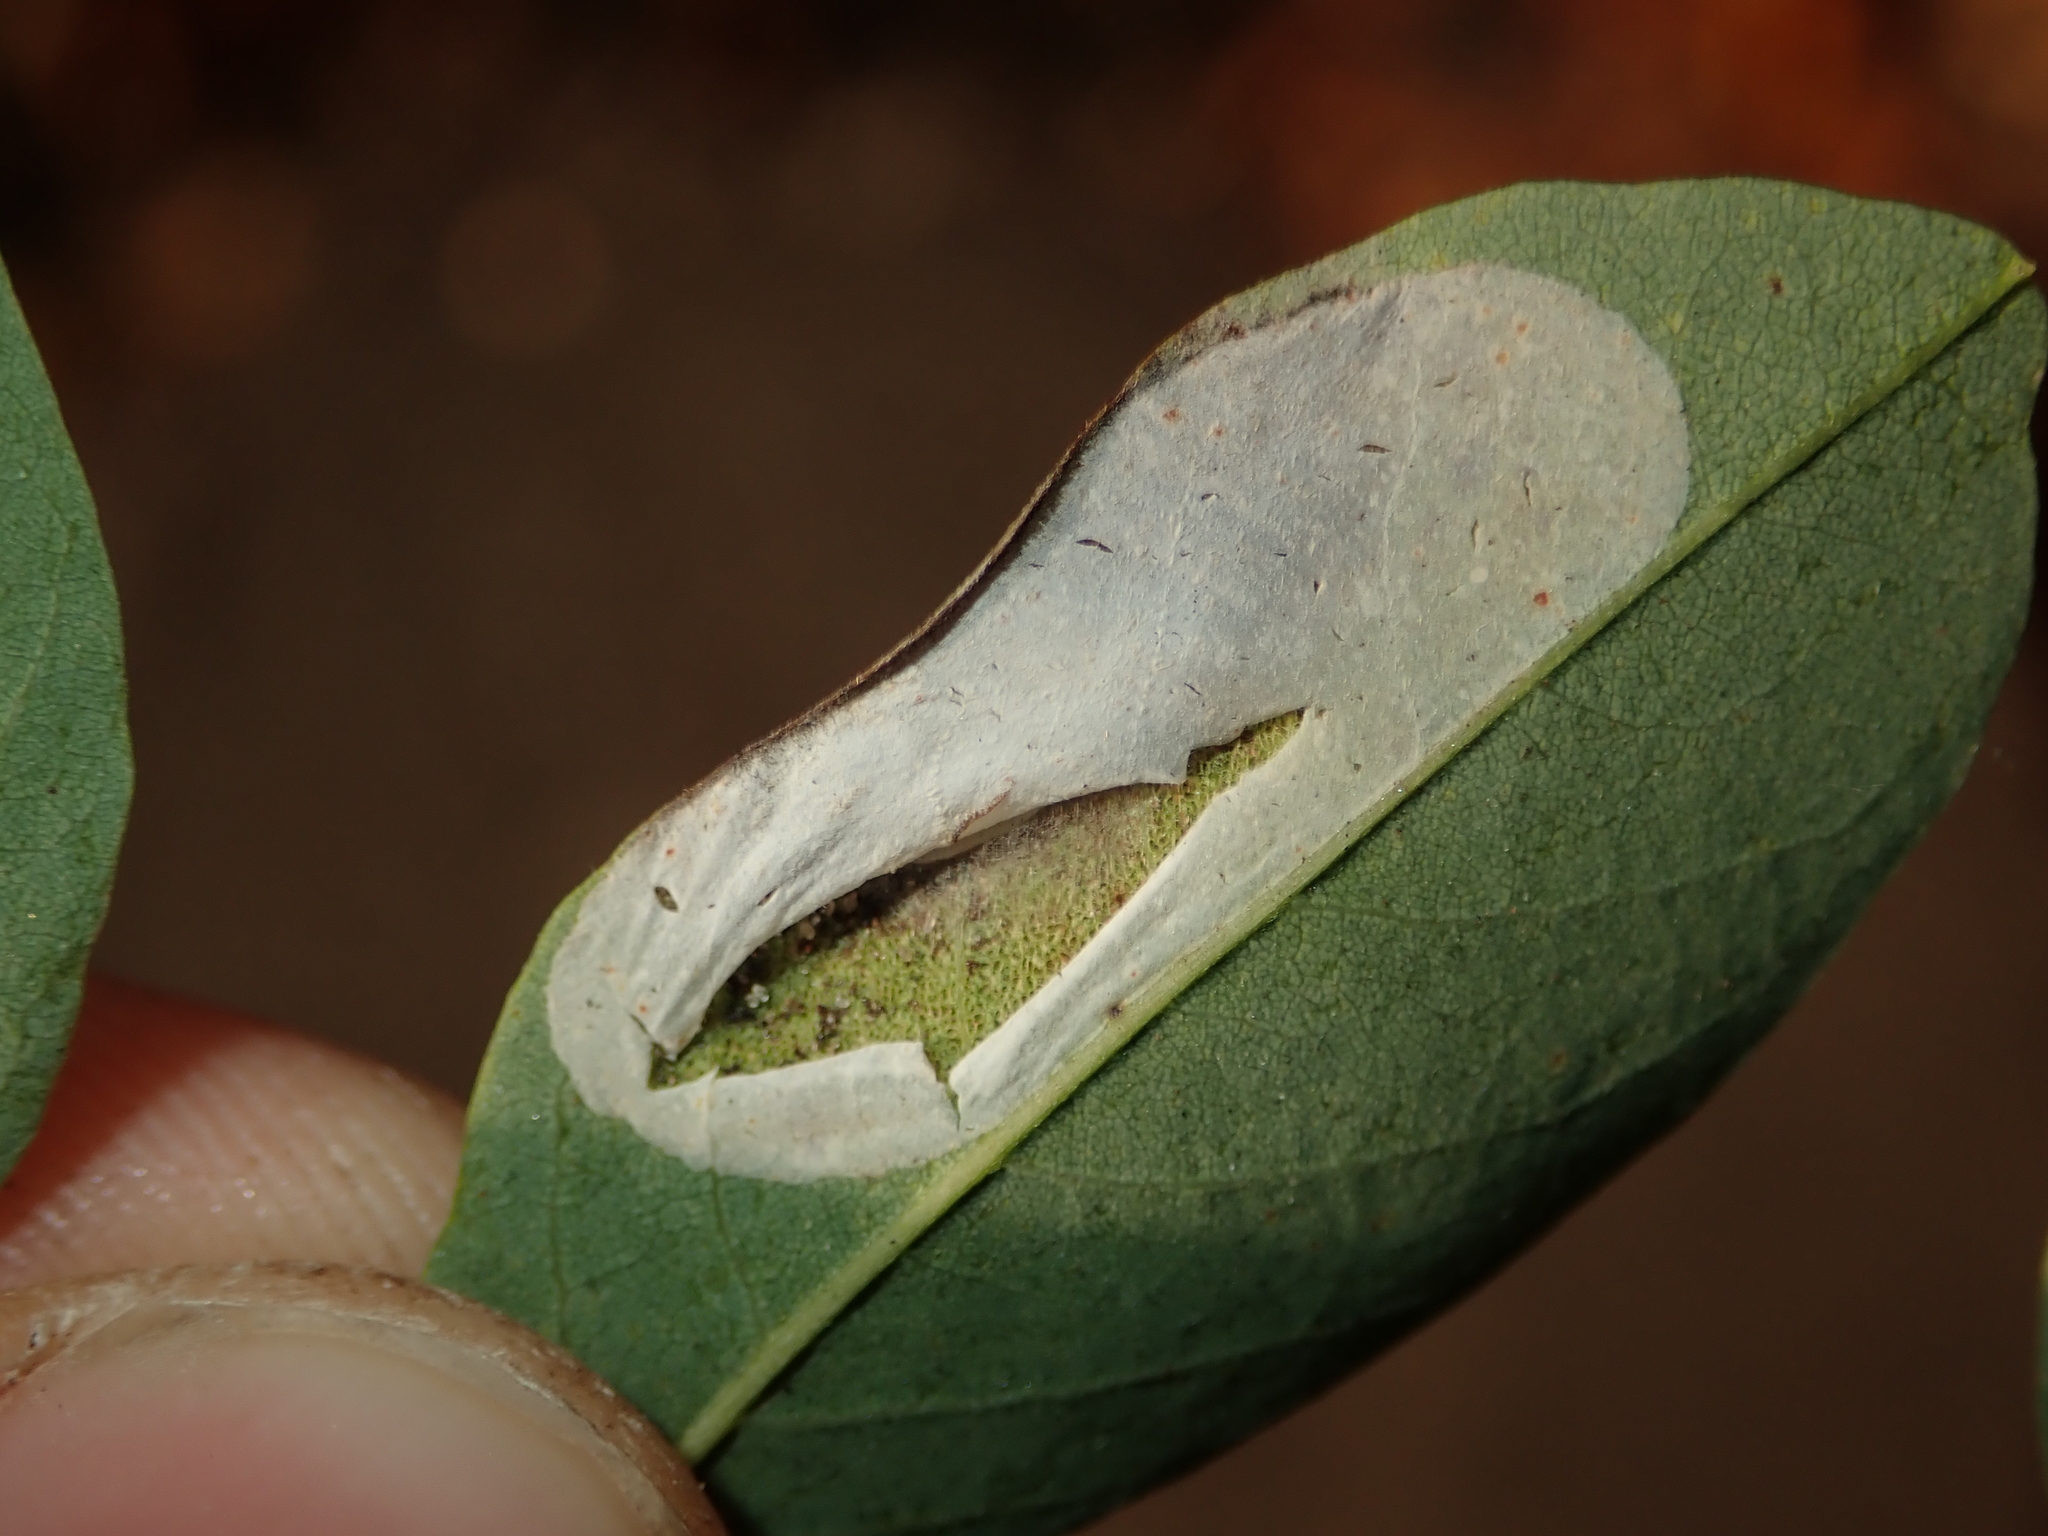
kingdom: Animalia
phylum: Arthropoda
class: Insecta
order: Lepidoptera
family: Gracillariidae
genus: Macrosaccus
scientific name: Macrosaccus robiniella
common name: Leaf blotch miner moth
